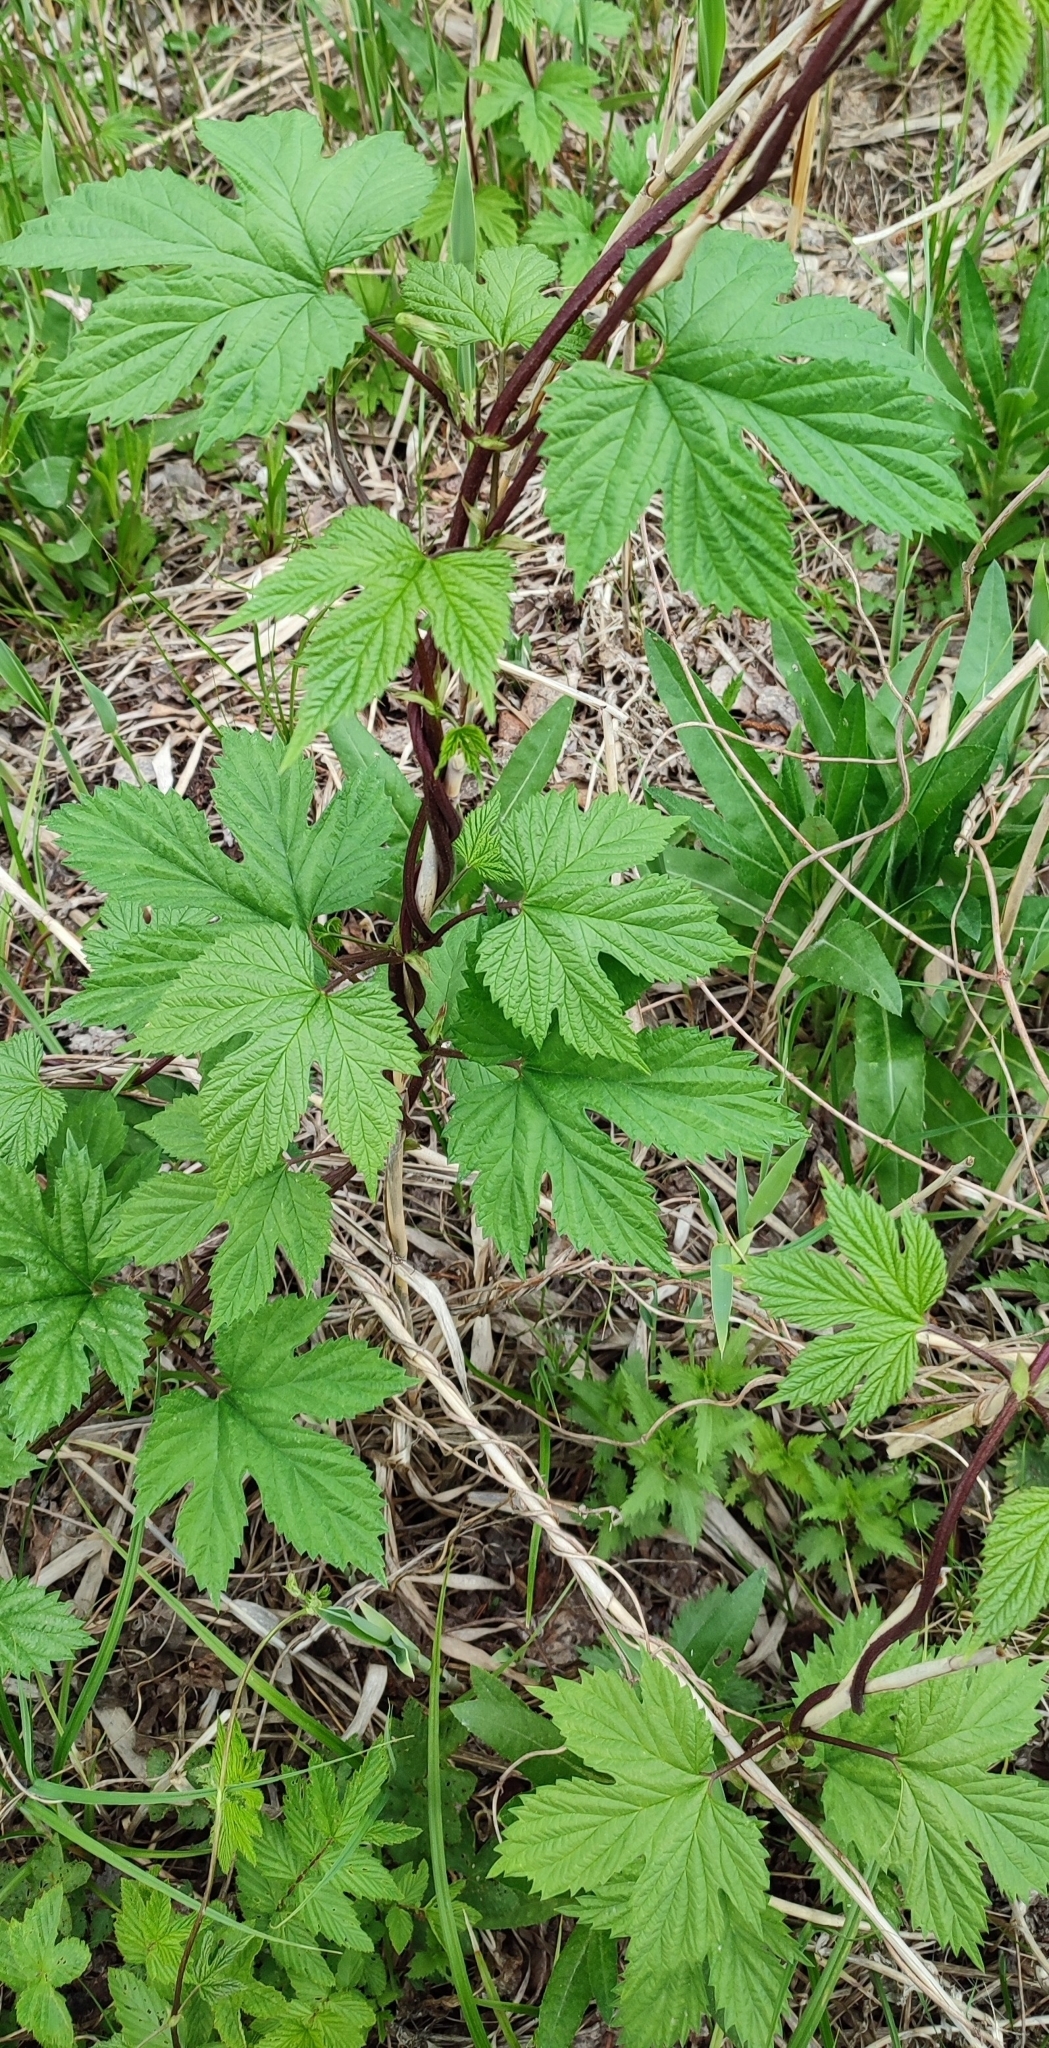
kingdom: Plantae
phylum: Tracheophyta
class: Magnoliopsida
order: Rosales
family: Cannabaceae
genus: Humulus
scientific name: Humulus lupulus
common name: Hop
